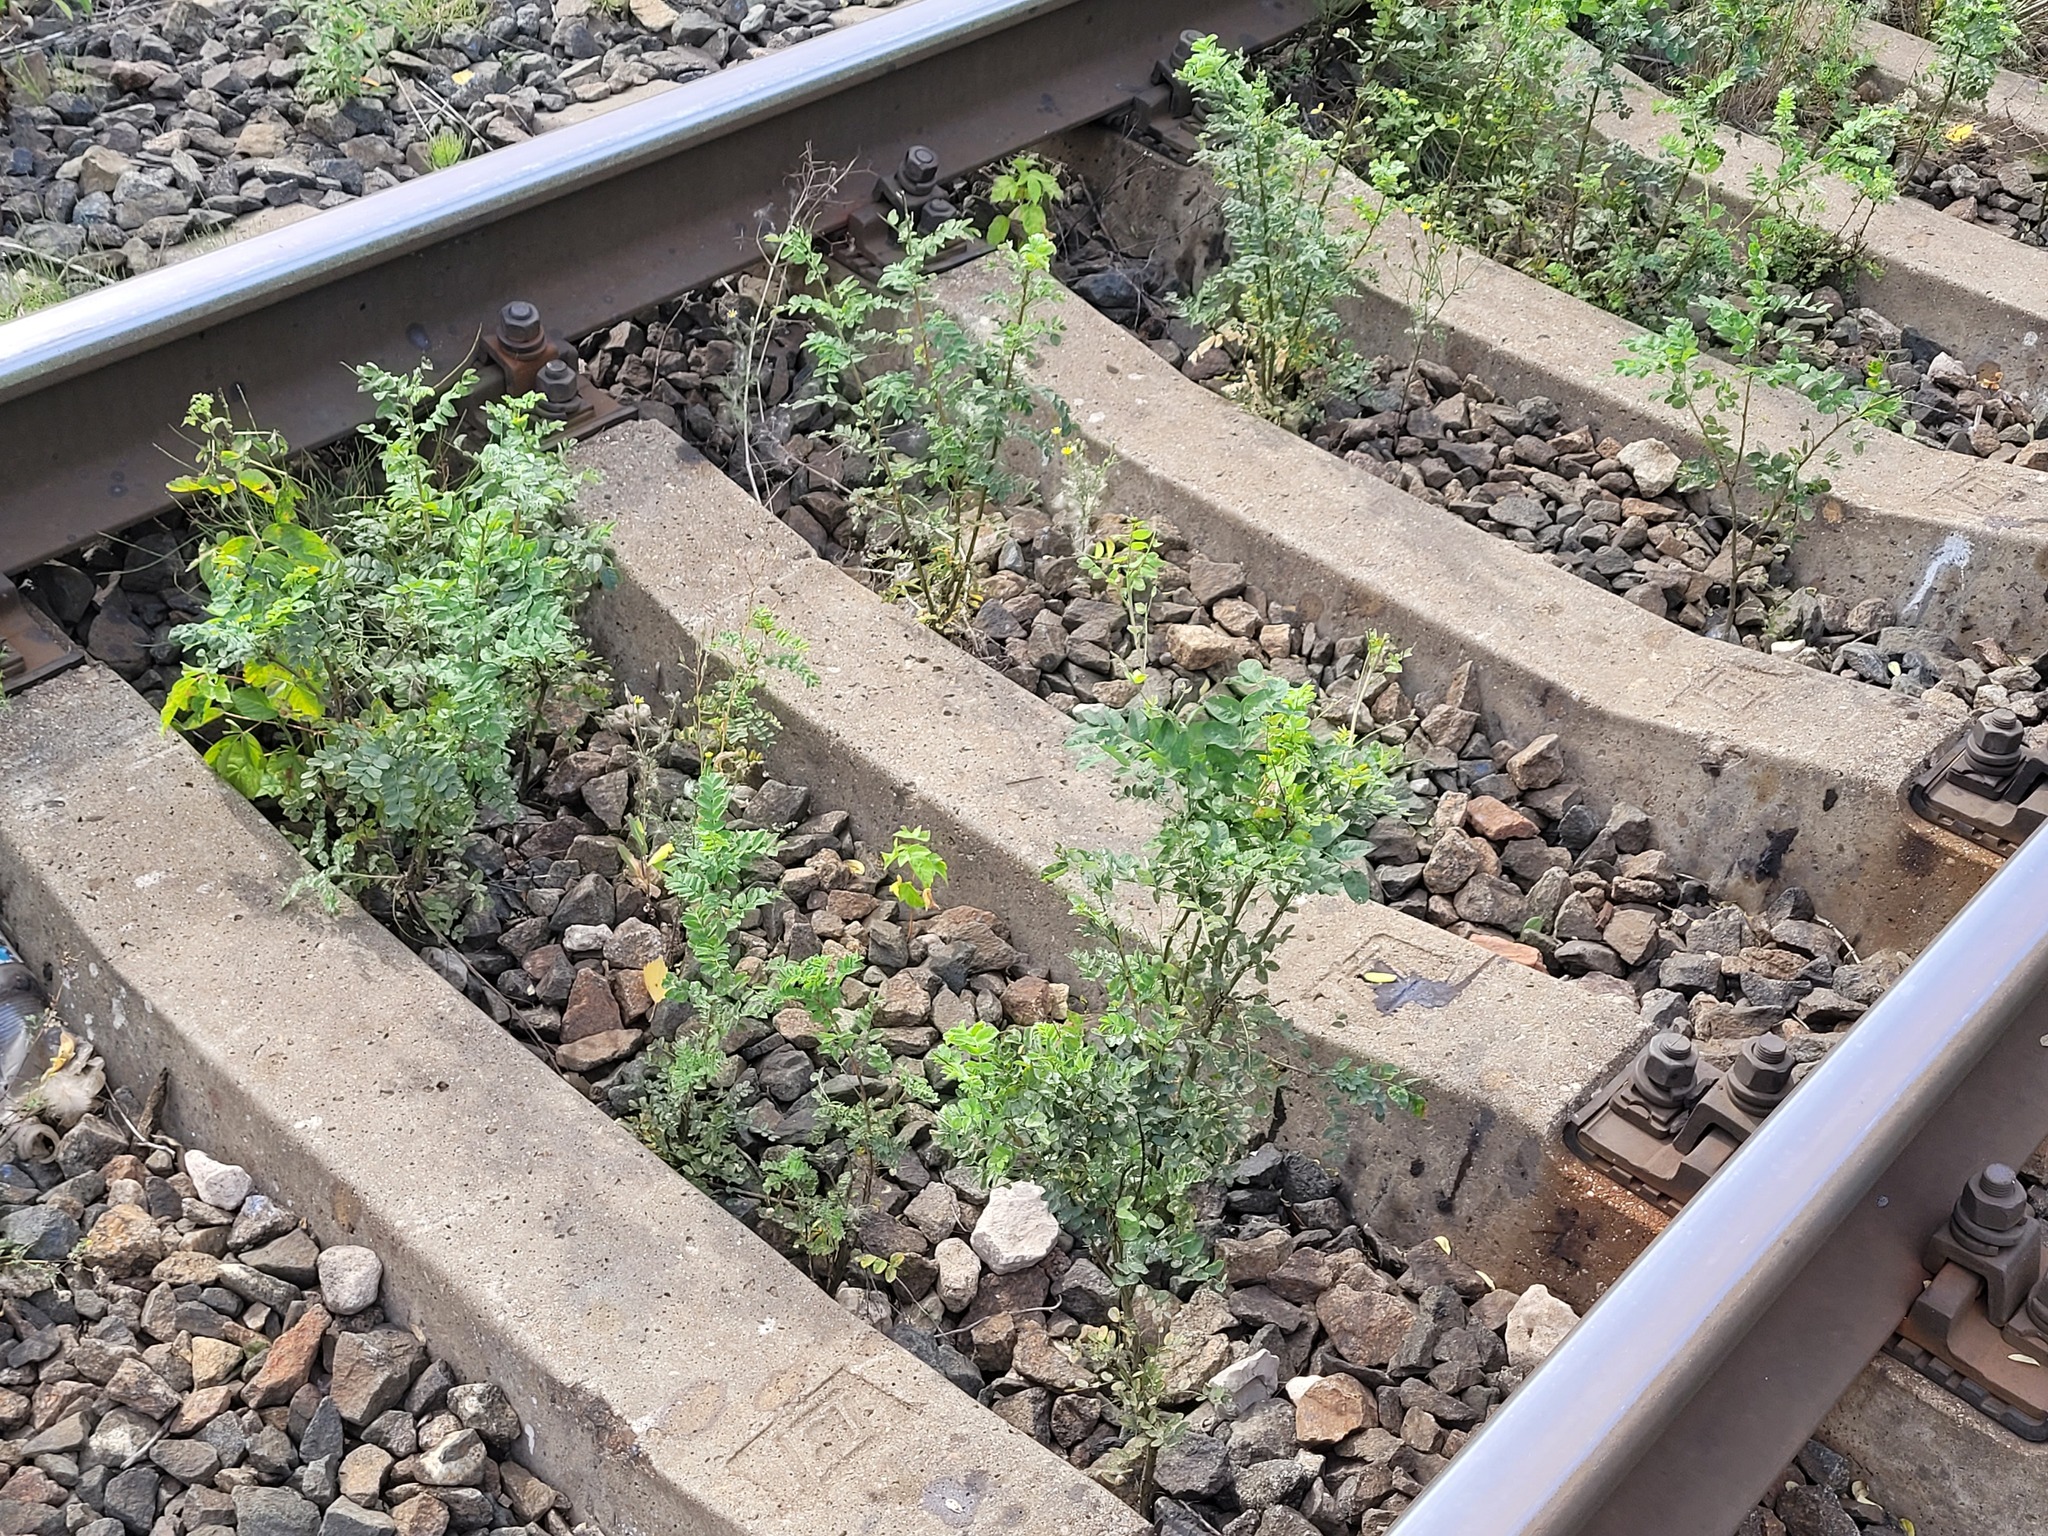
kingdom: Plantae
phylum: Tracheophyta
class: Magnoliopsida
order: Fabales
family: Fabaceae
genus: Caragana
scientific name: Caragana arborescens
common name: Siberian peashrub
